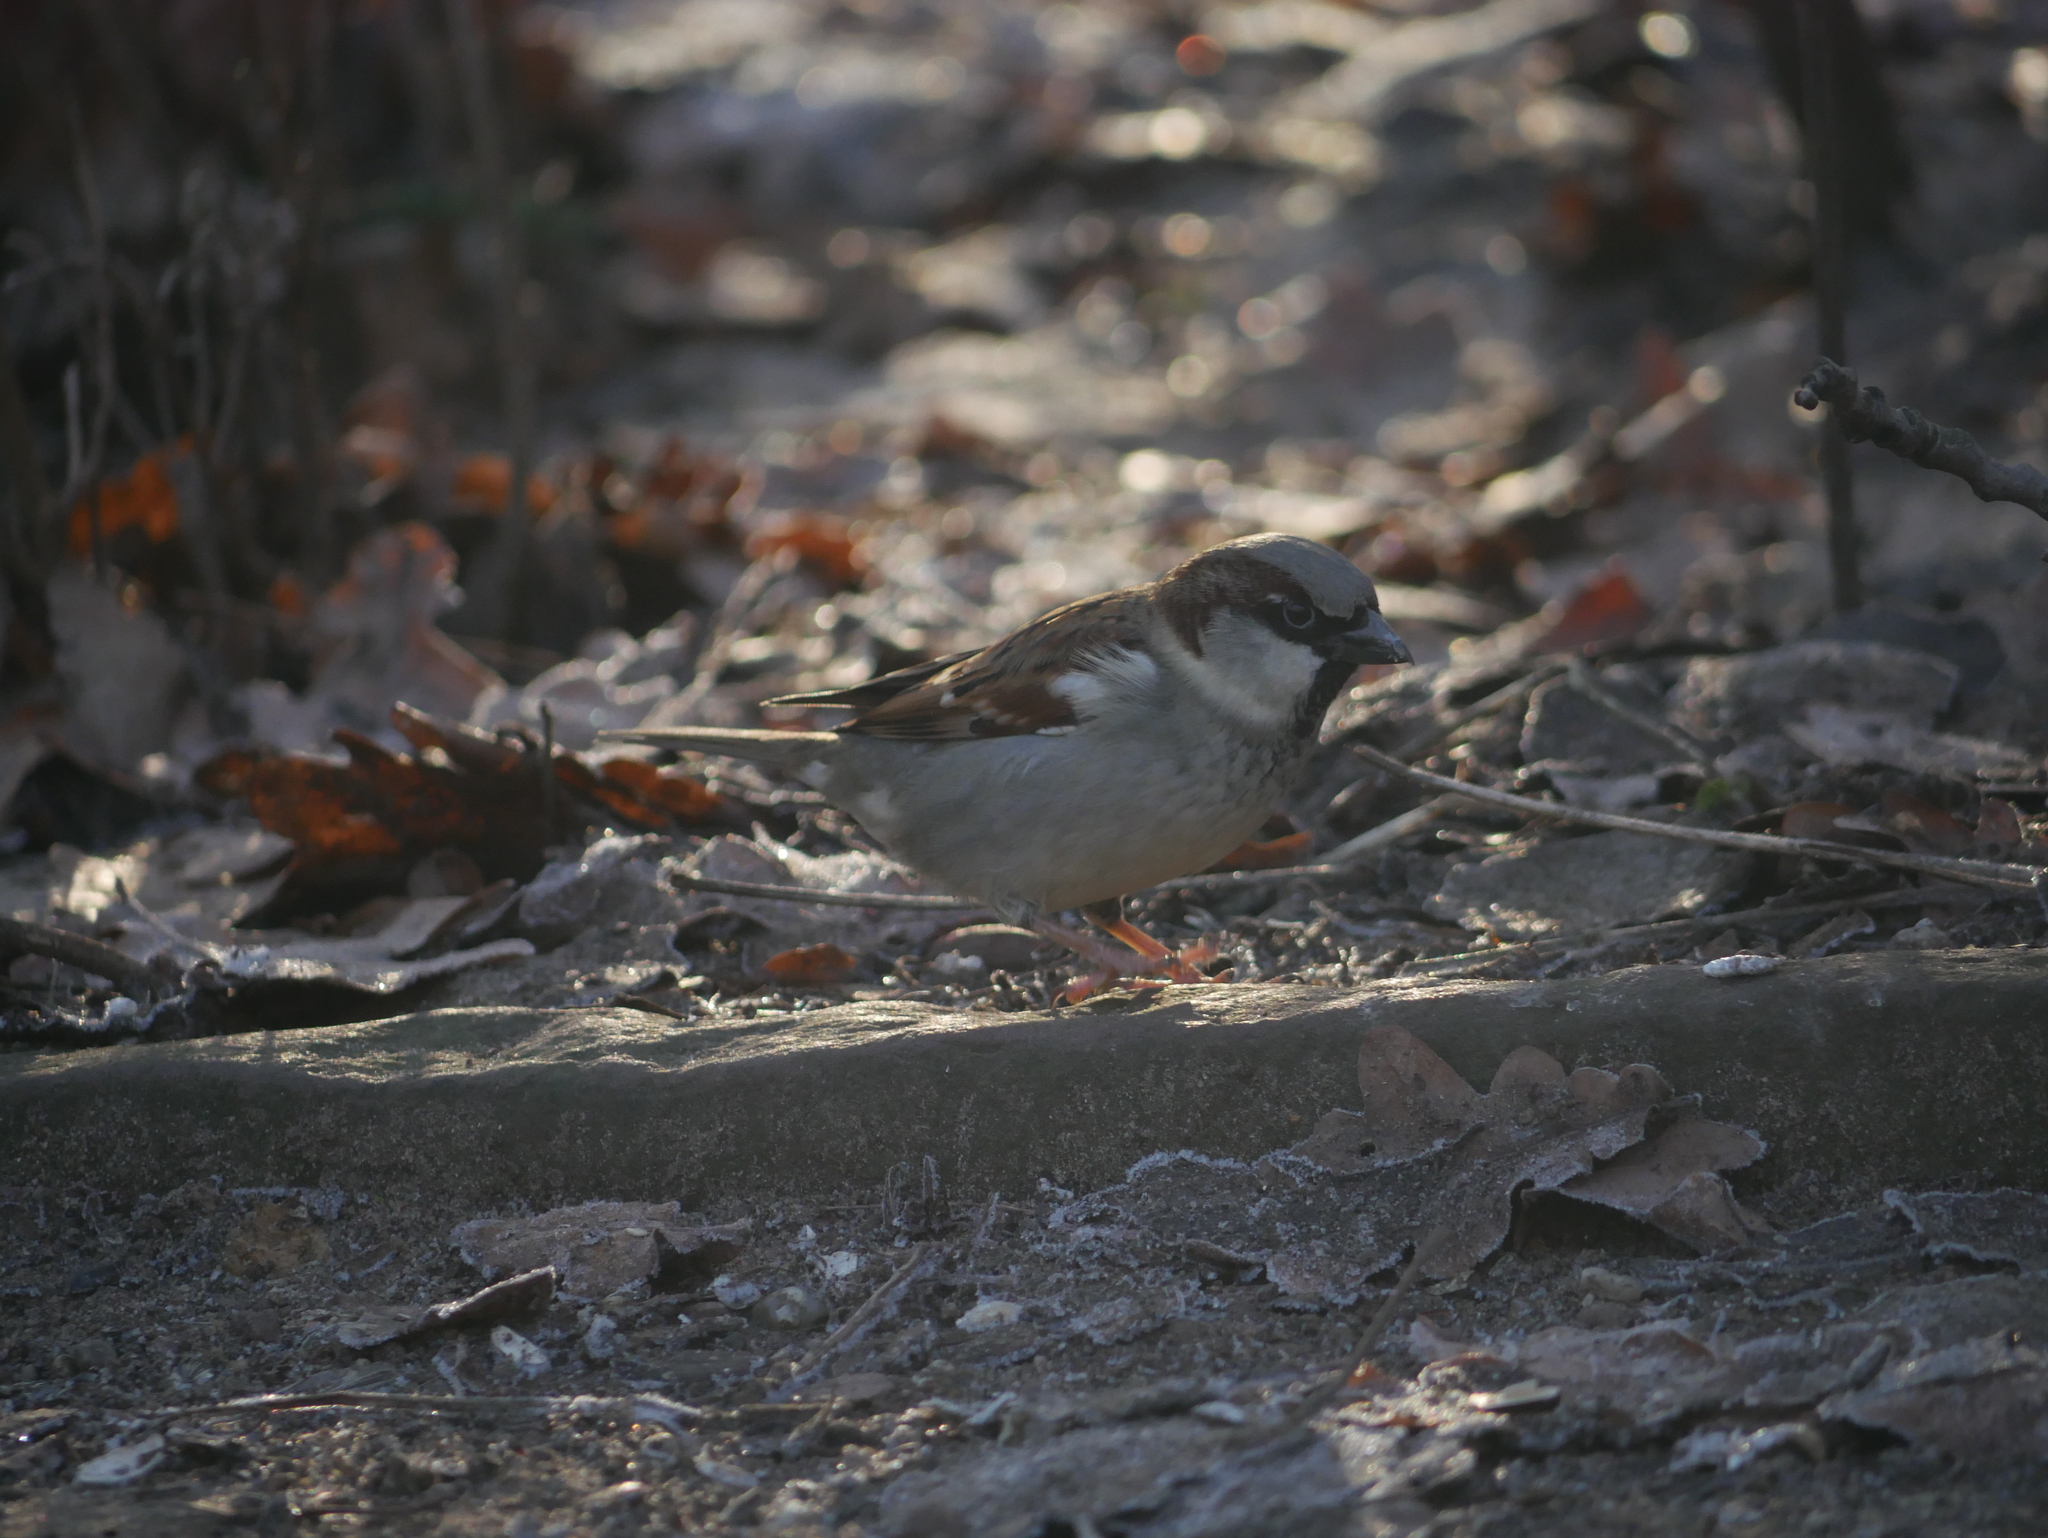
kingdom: Animalia
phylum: Chordata
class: Aves
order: Passeriformes
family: Passeridae
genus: Passer
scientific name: Passer domesticus
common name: House sparrow
